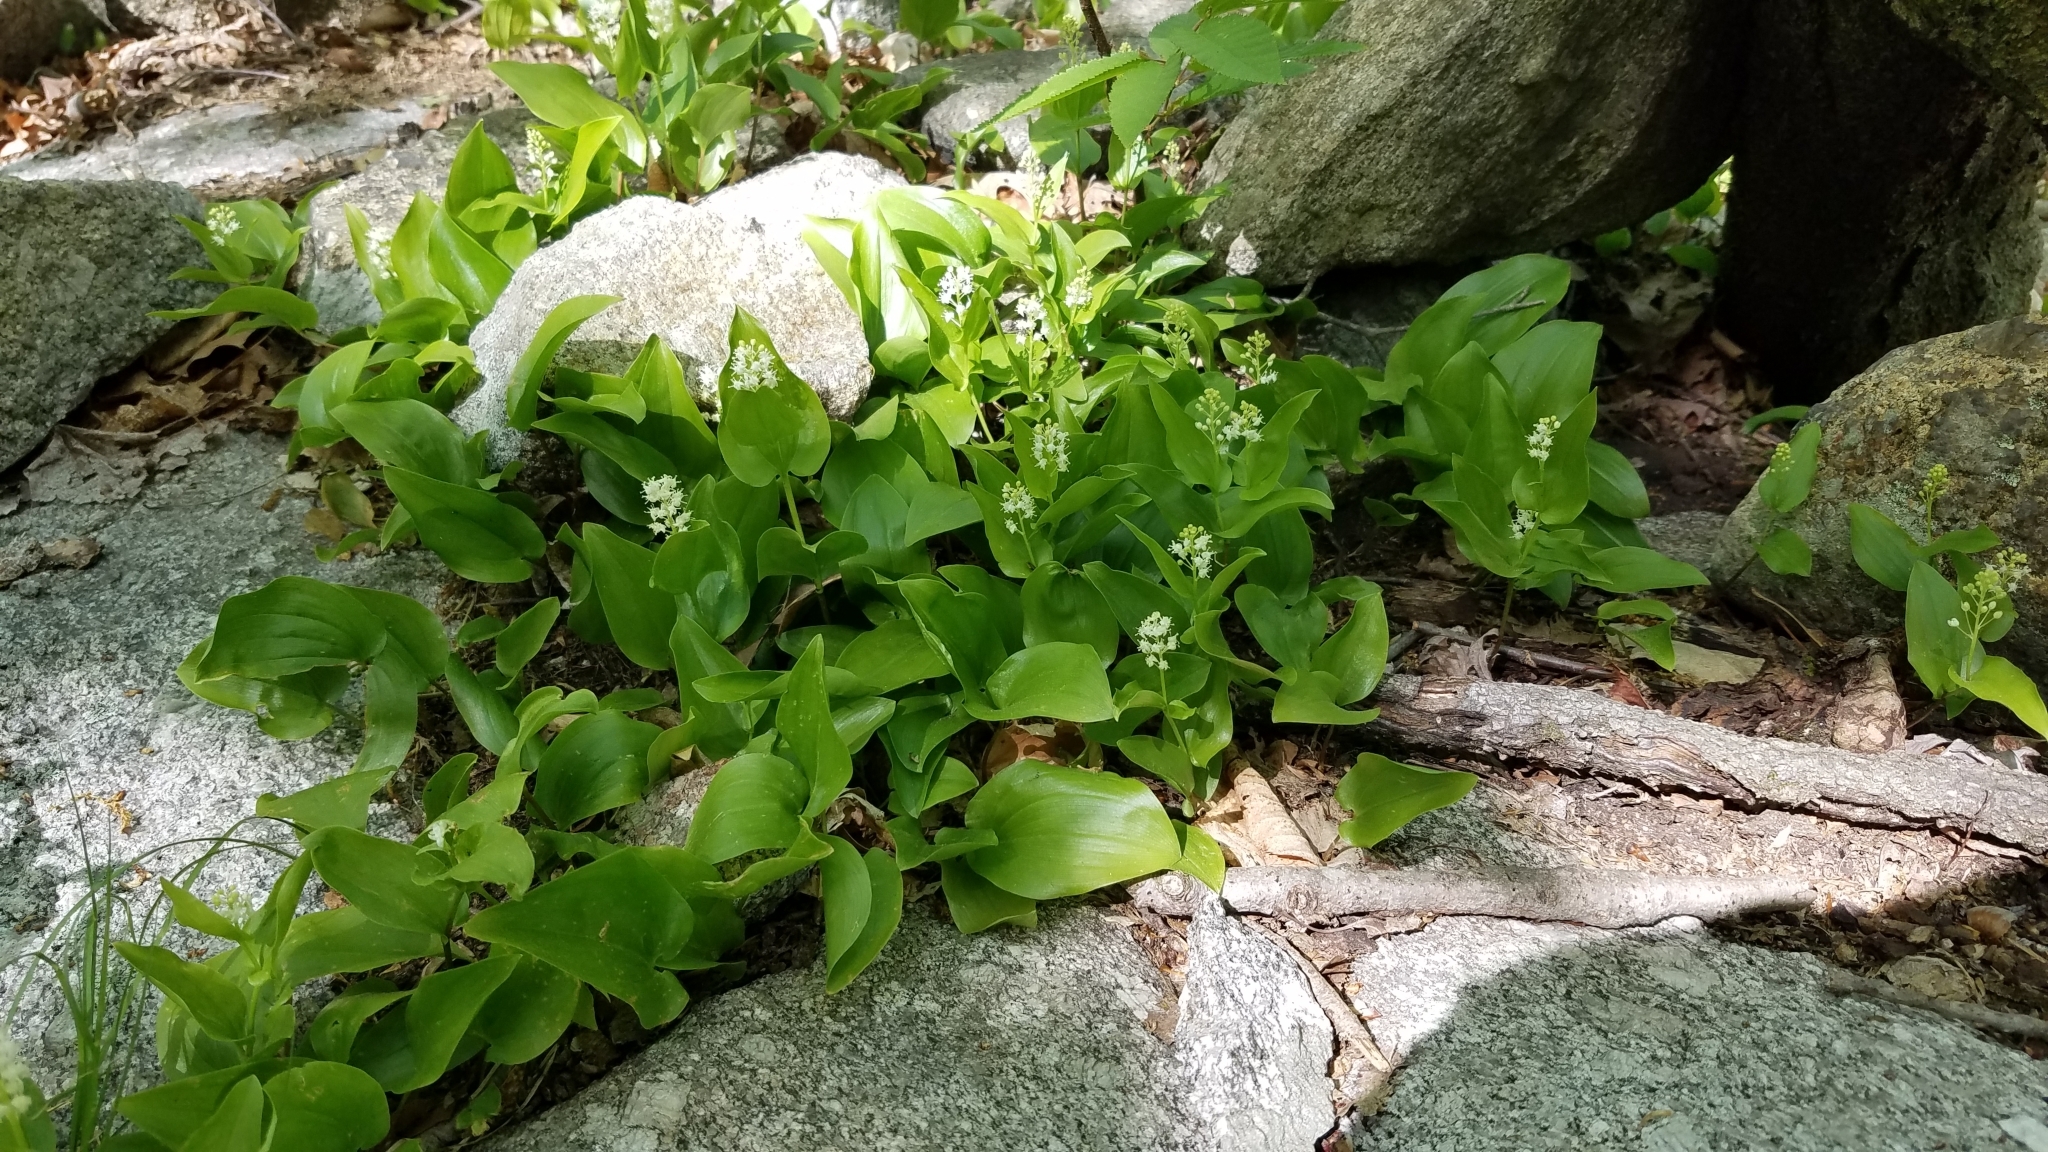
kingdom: Plantae
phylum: Tracheophyta
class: Liliopsida
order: Asparagales
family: Asparagaceae
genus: Maianthemum
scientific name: Maianthemum canadense
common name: False lily-of-the-valley
